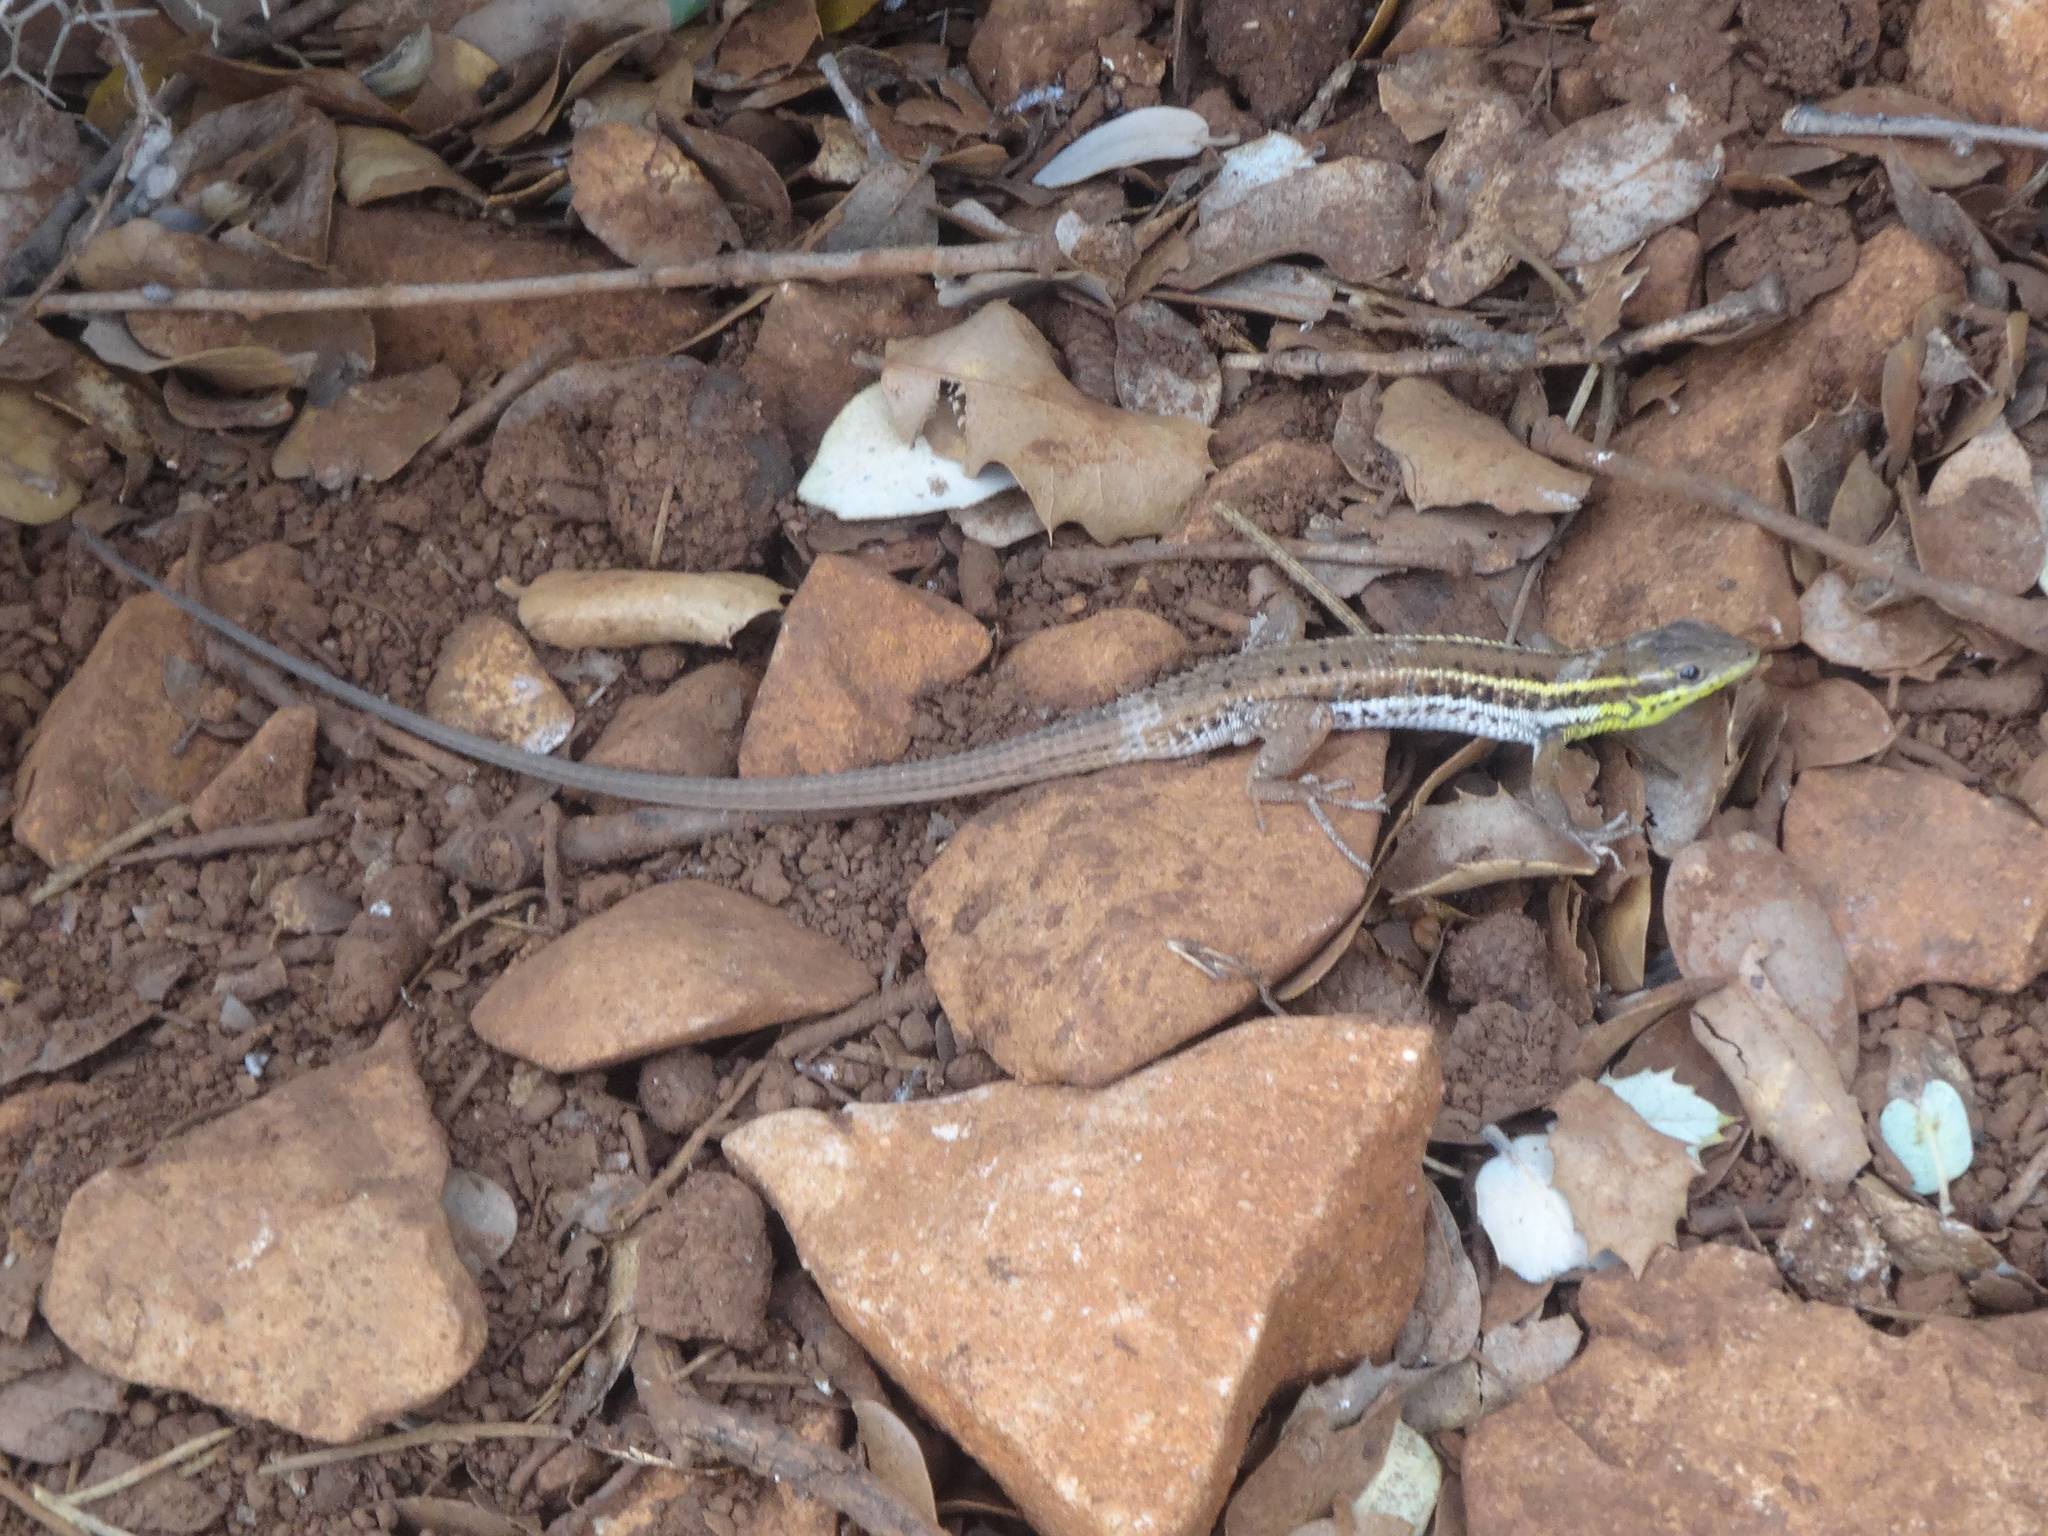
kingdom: Animalia
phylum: Chordata
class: Squamata
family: Lacertidae
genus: Ophisops
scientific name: Ophisops elegans
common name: Snake-eyed lizard
